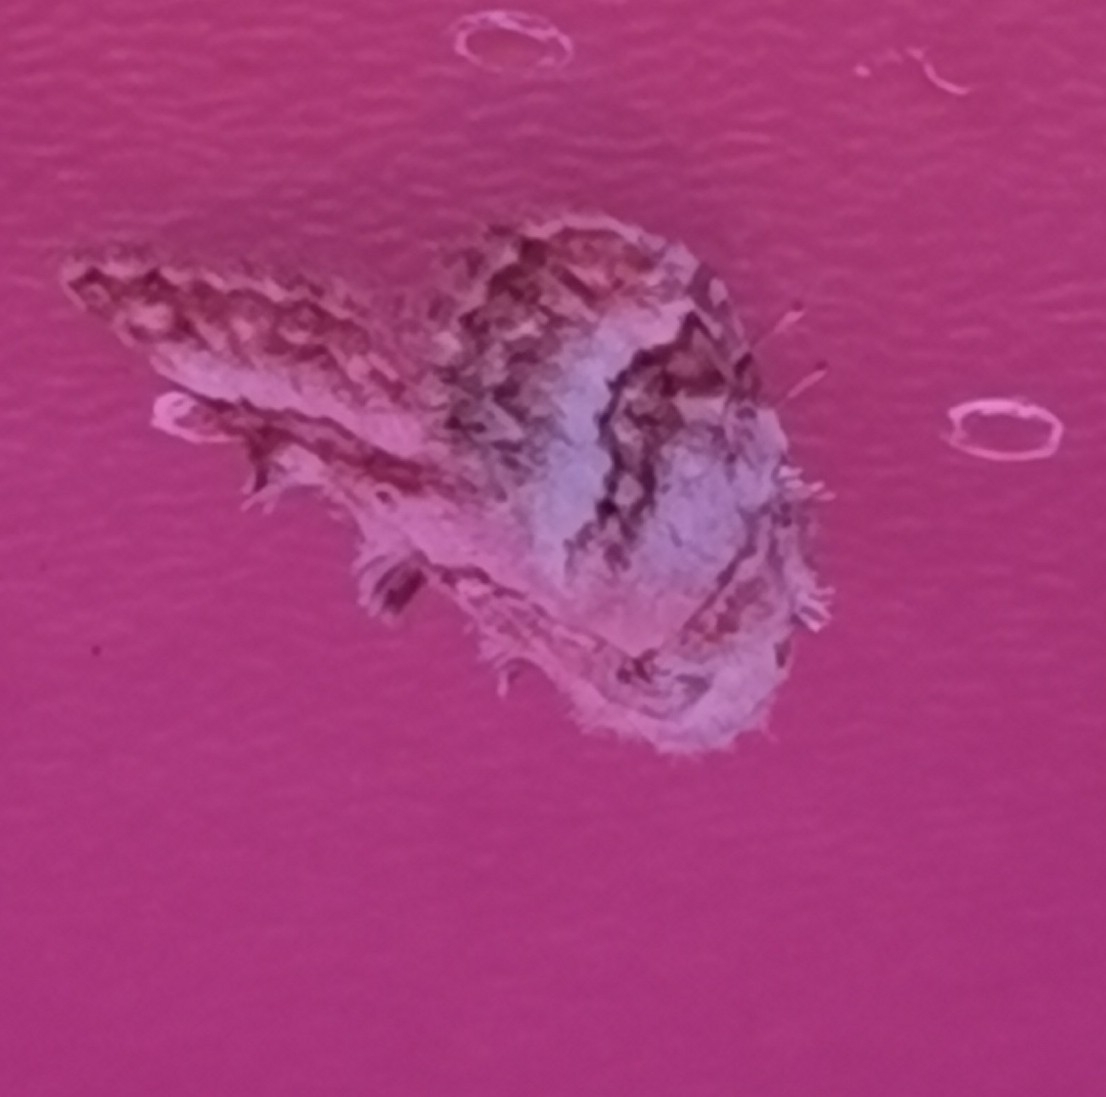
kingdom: Animalia
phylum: Arthropoda
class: Insecta
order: Lepidoptera
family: Nolidae
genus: Nola
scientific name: Nola aerugula
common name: Scarce black arches
